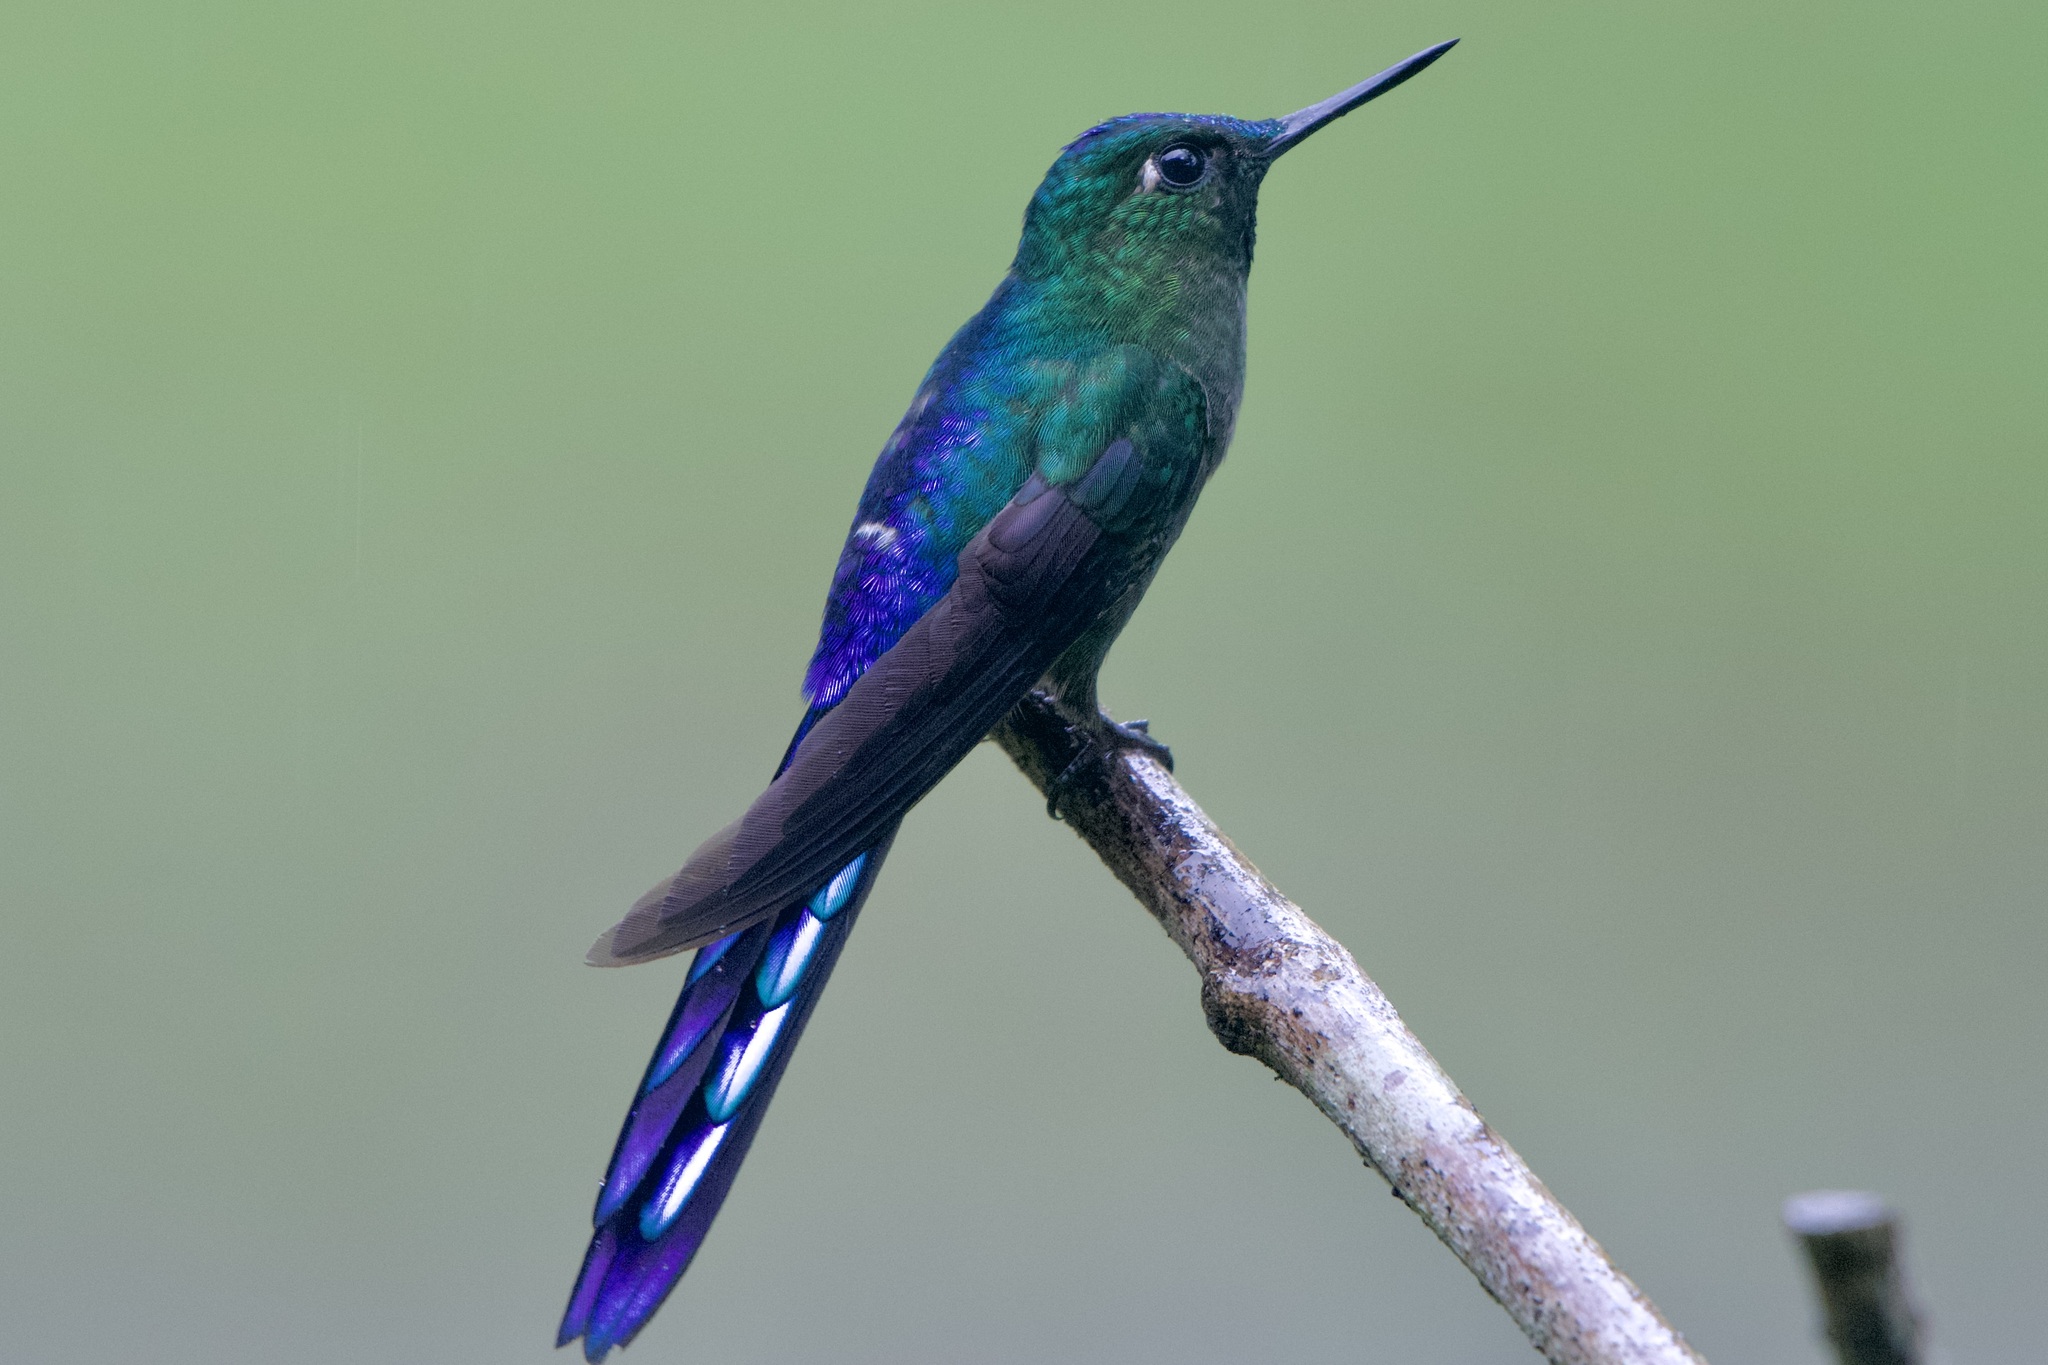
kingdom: Animalia
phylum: Chordata
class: Aves
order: Apodiformes
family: Trochilidae
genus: Aglaiocercus
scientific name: Aglaiocercus coelestis
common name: Violet-tailed sylph
